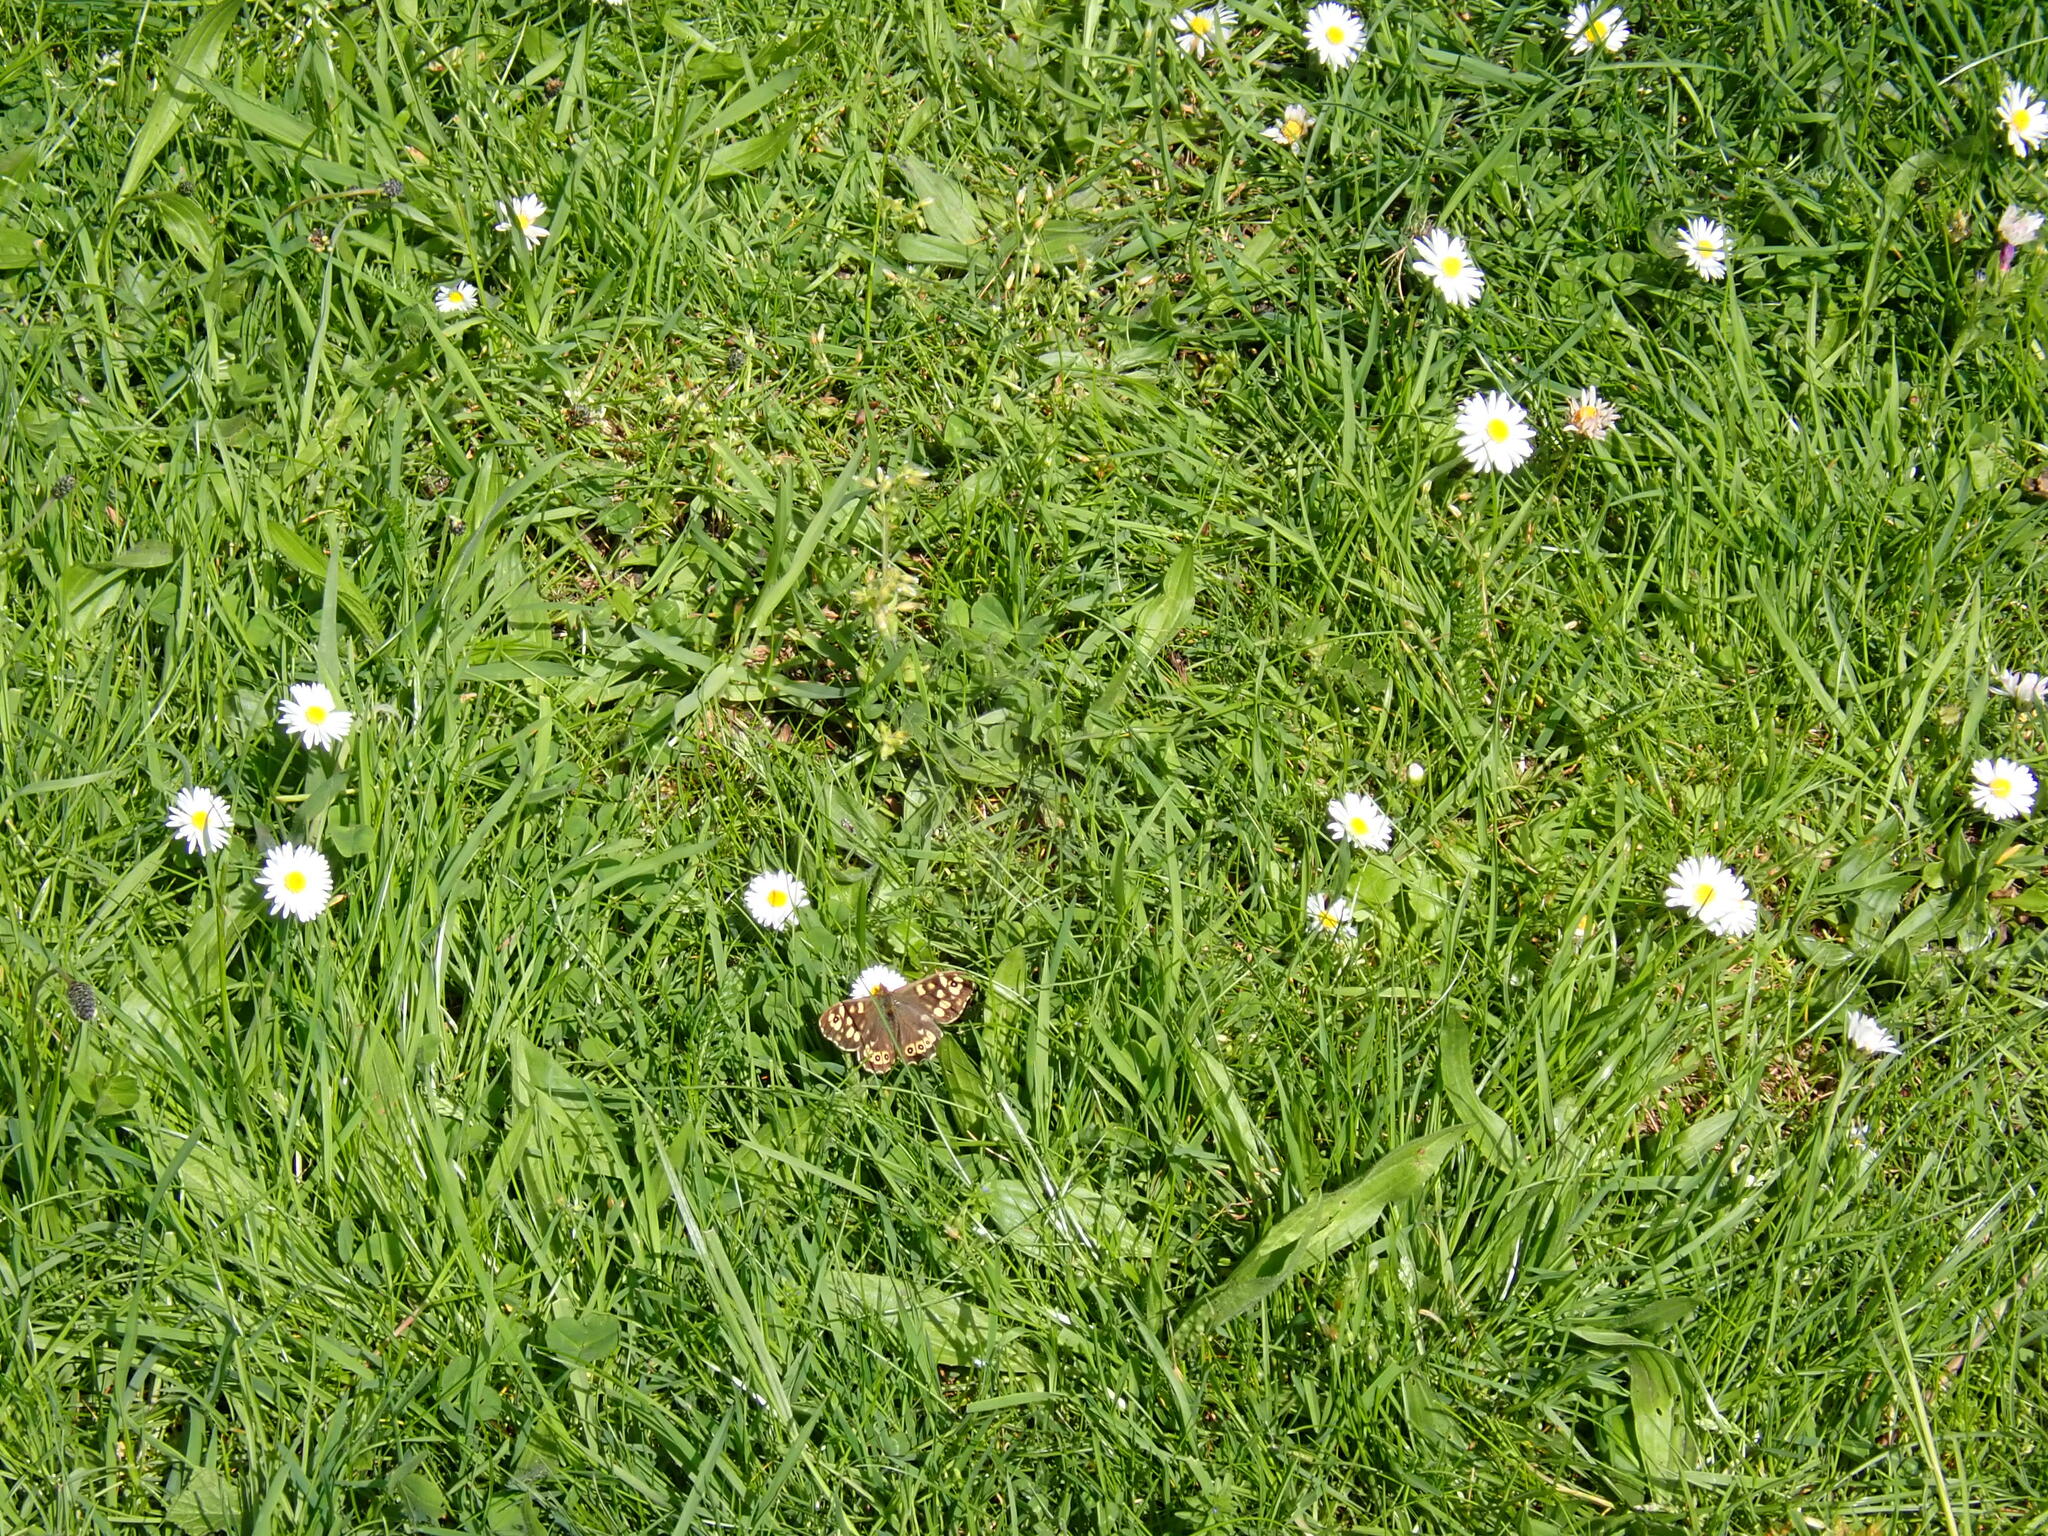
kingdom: Animalia
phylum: Arthropoda
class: Insecta
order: Lepidoptera
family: Nymphalidae
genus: Pararge
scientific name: Pararge aegeria
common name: Speckled wood
